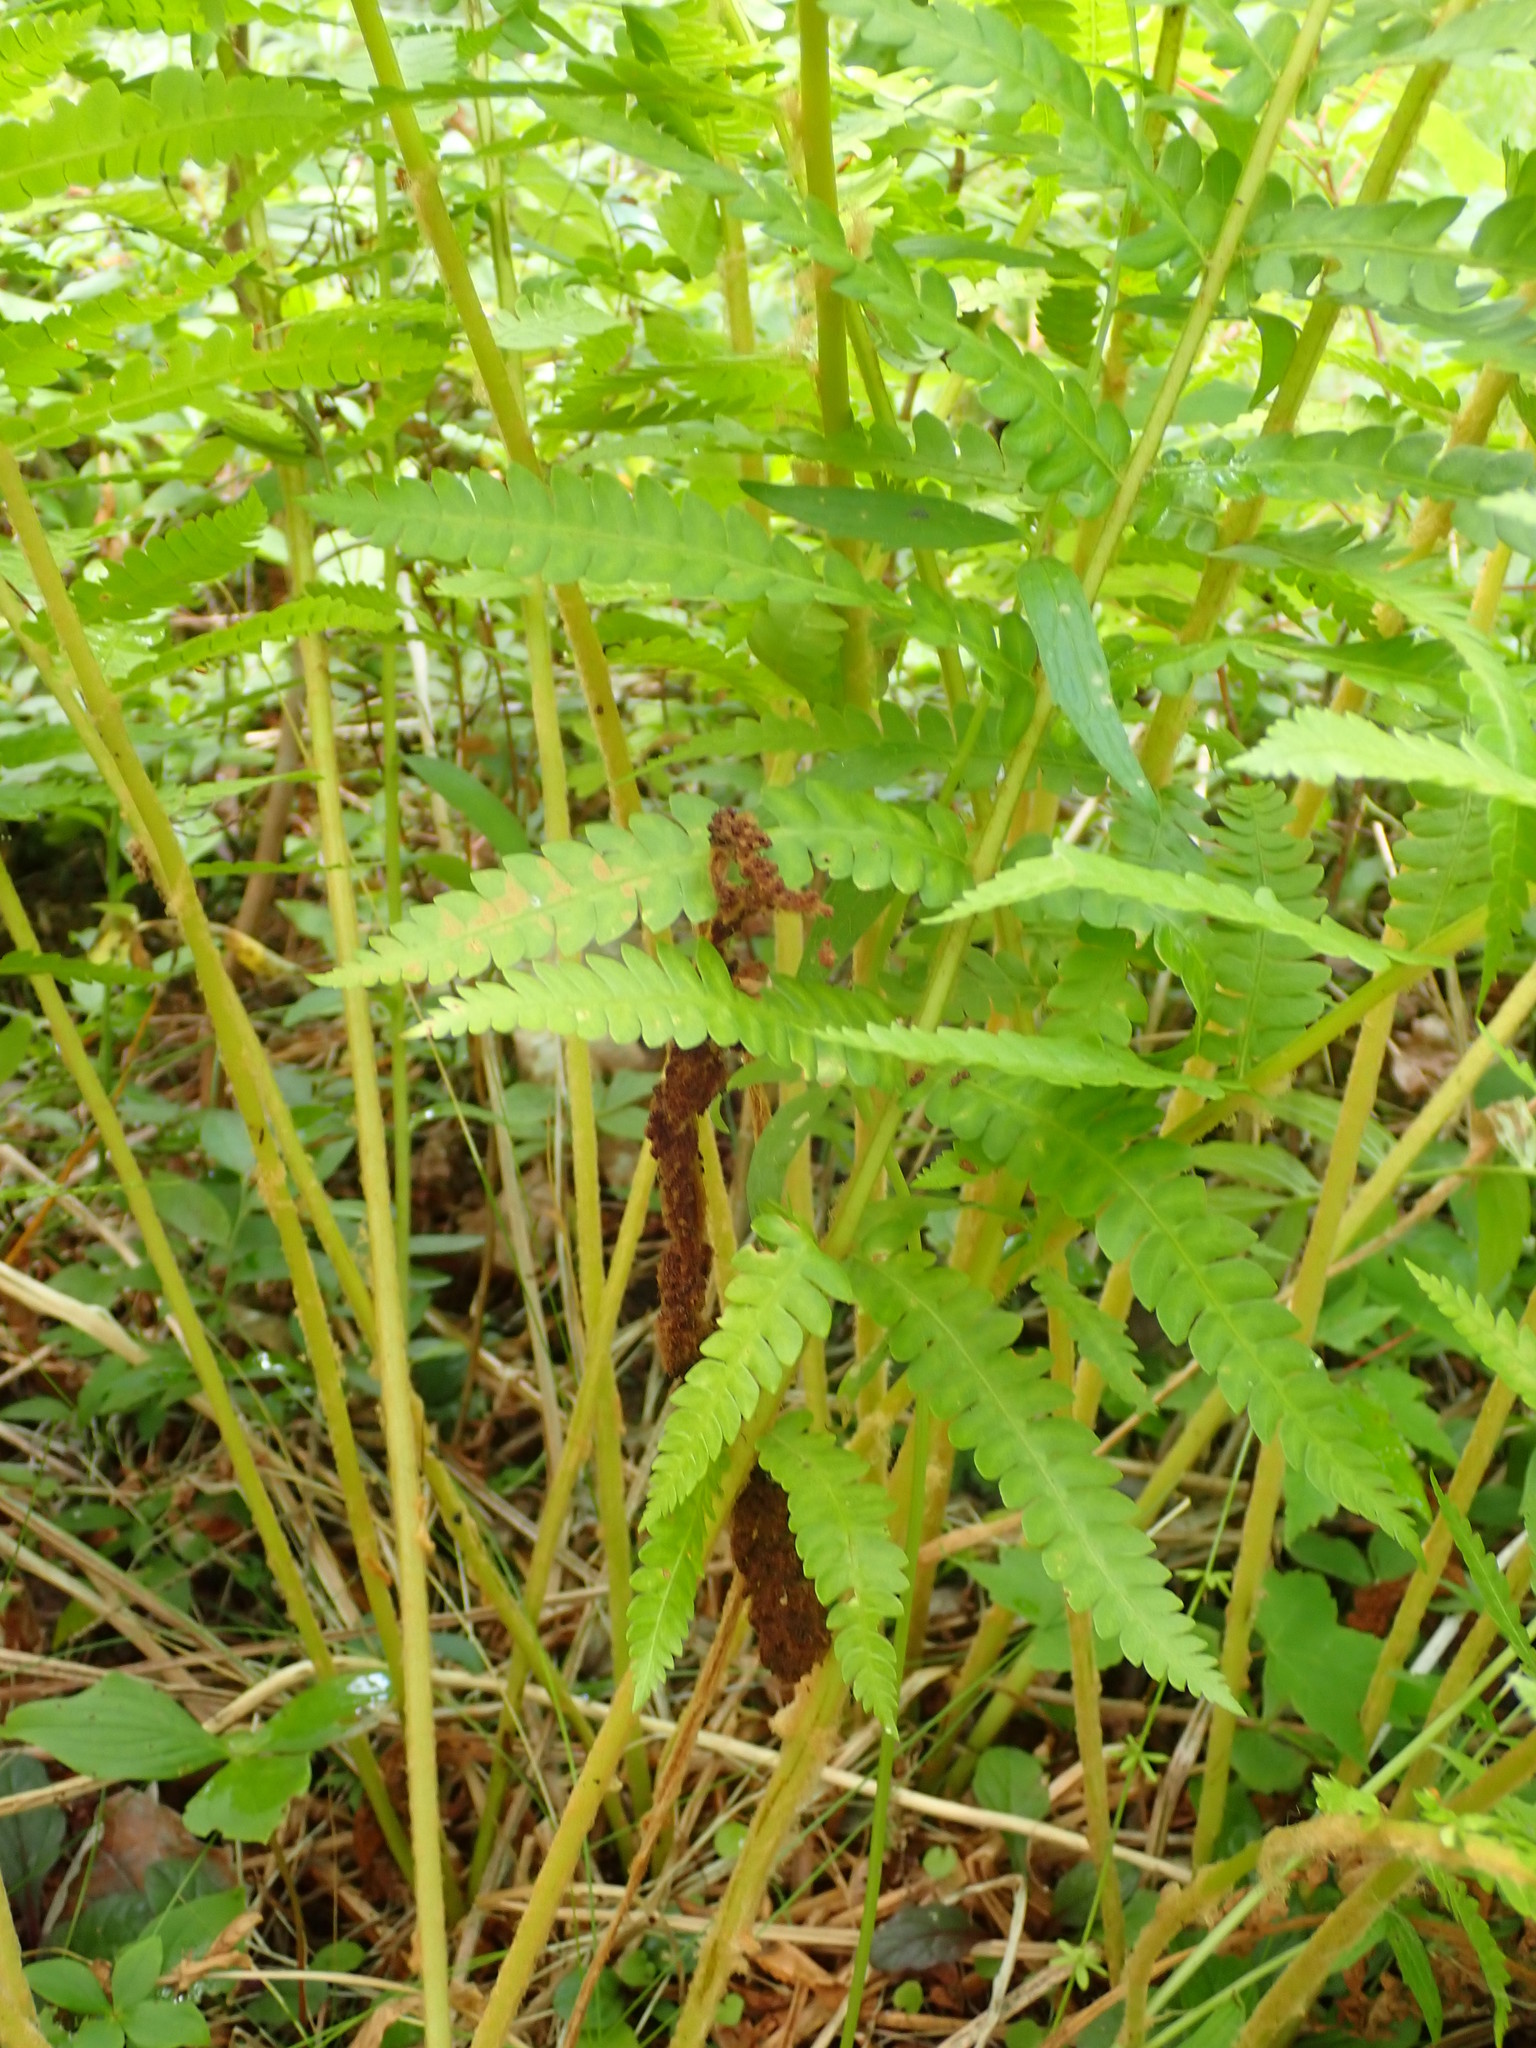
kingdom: Plantae
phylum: Tracheophyta
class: Polypodiopsida
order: Osmundales
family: Osmundaceae
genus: Osmundastrum
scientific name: Osmundastrum cinnamomeum
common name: Cinnamon fern
